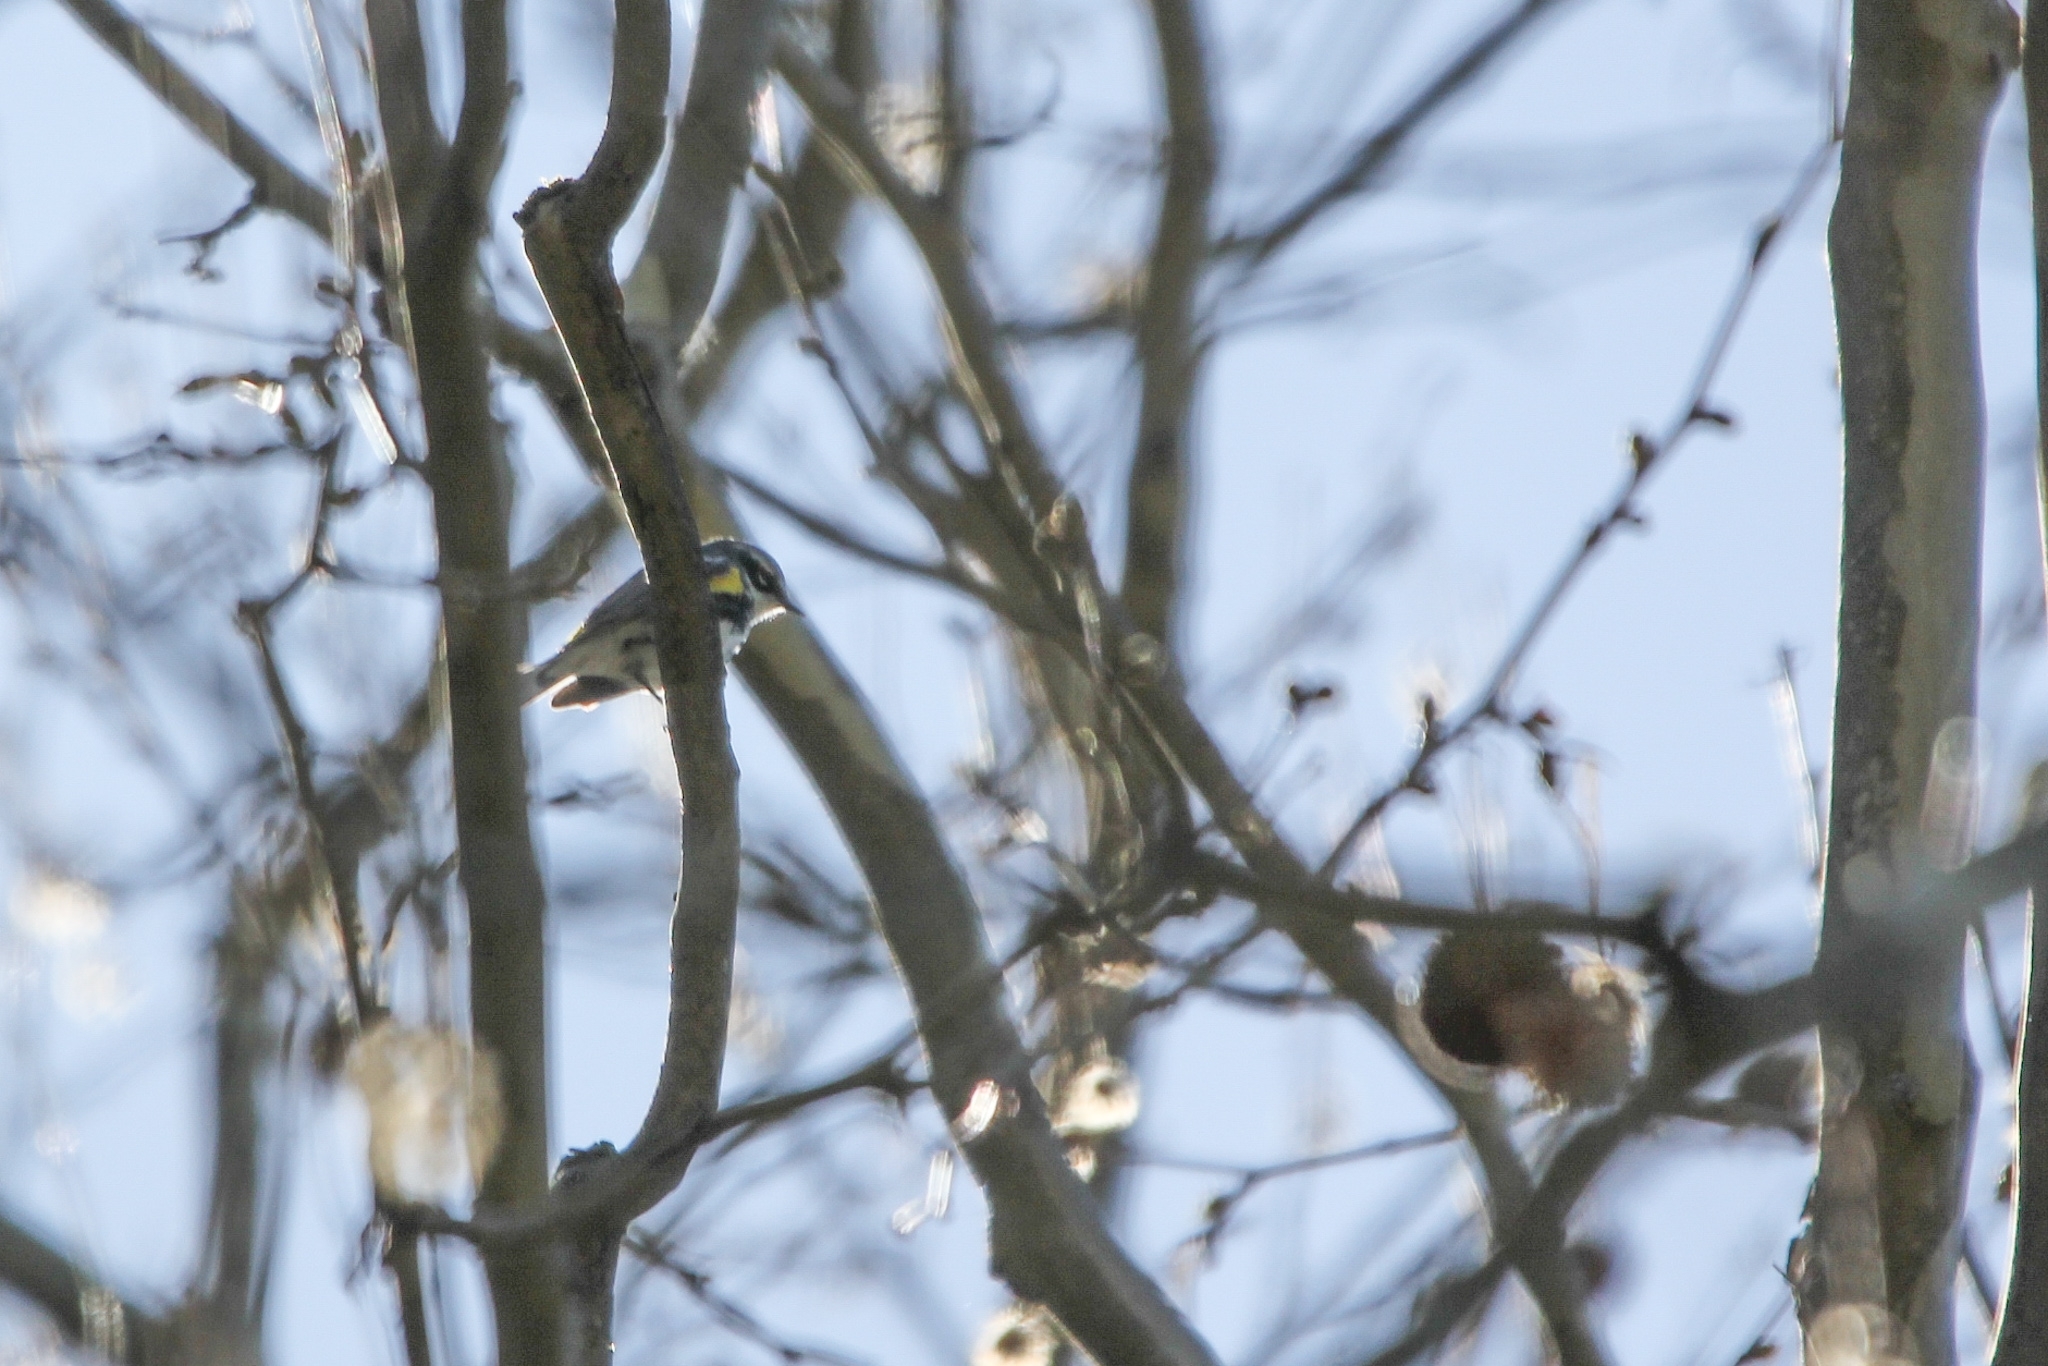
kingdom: Animalia
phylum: Chordata
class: Aves
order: Passeriformes
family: Parulidae
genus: Setophaga
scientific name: Setophaga coronata
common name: Myrtle warbler
